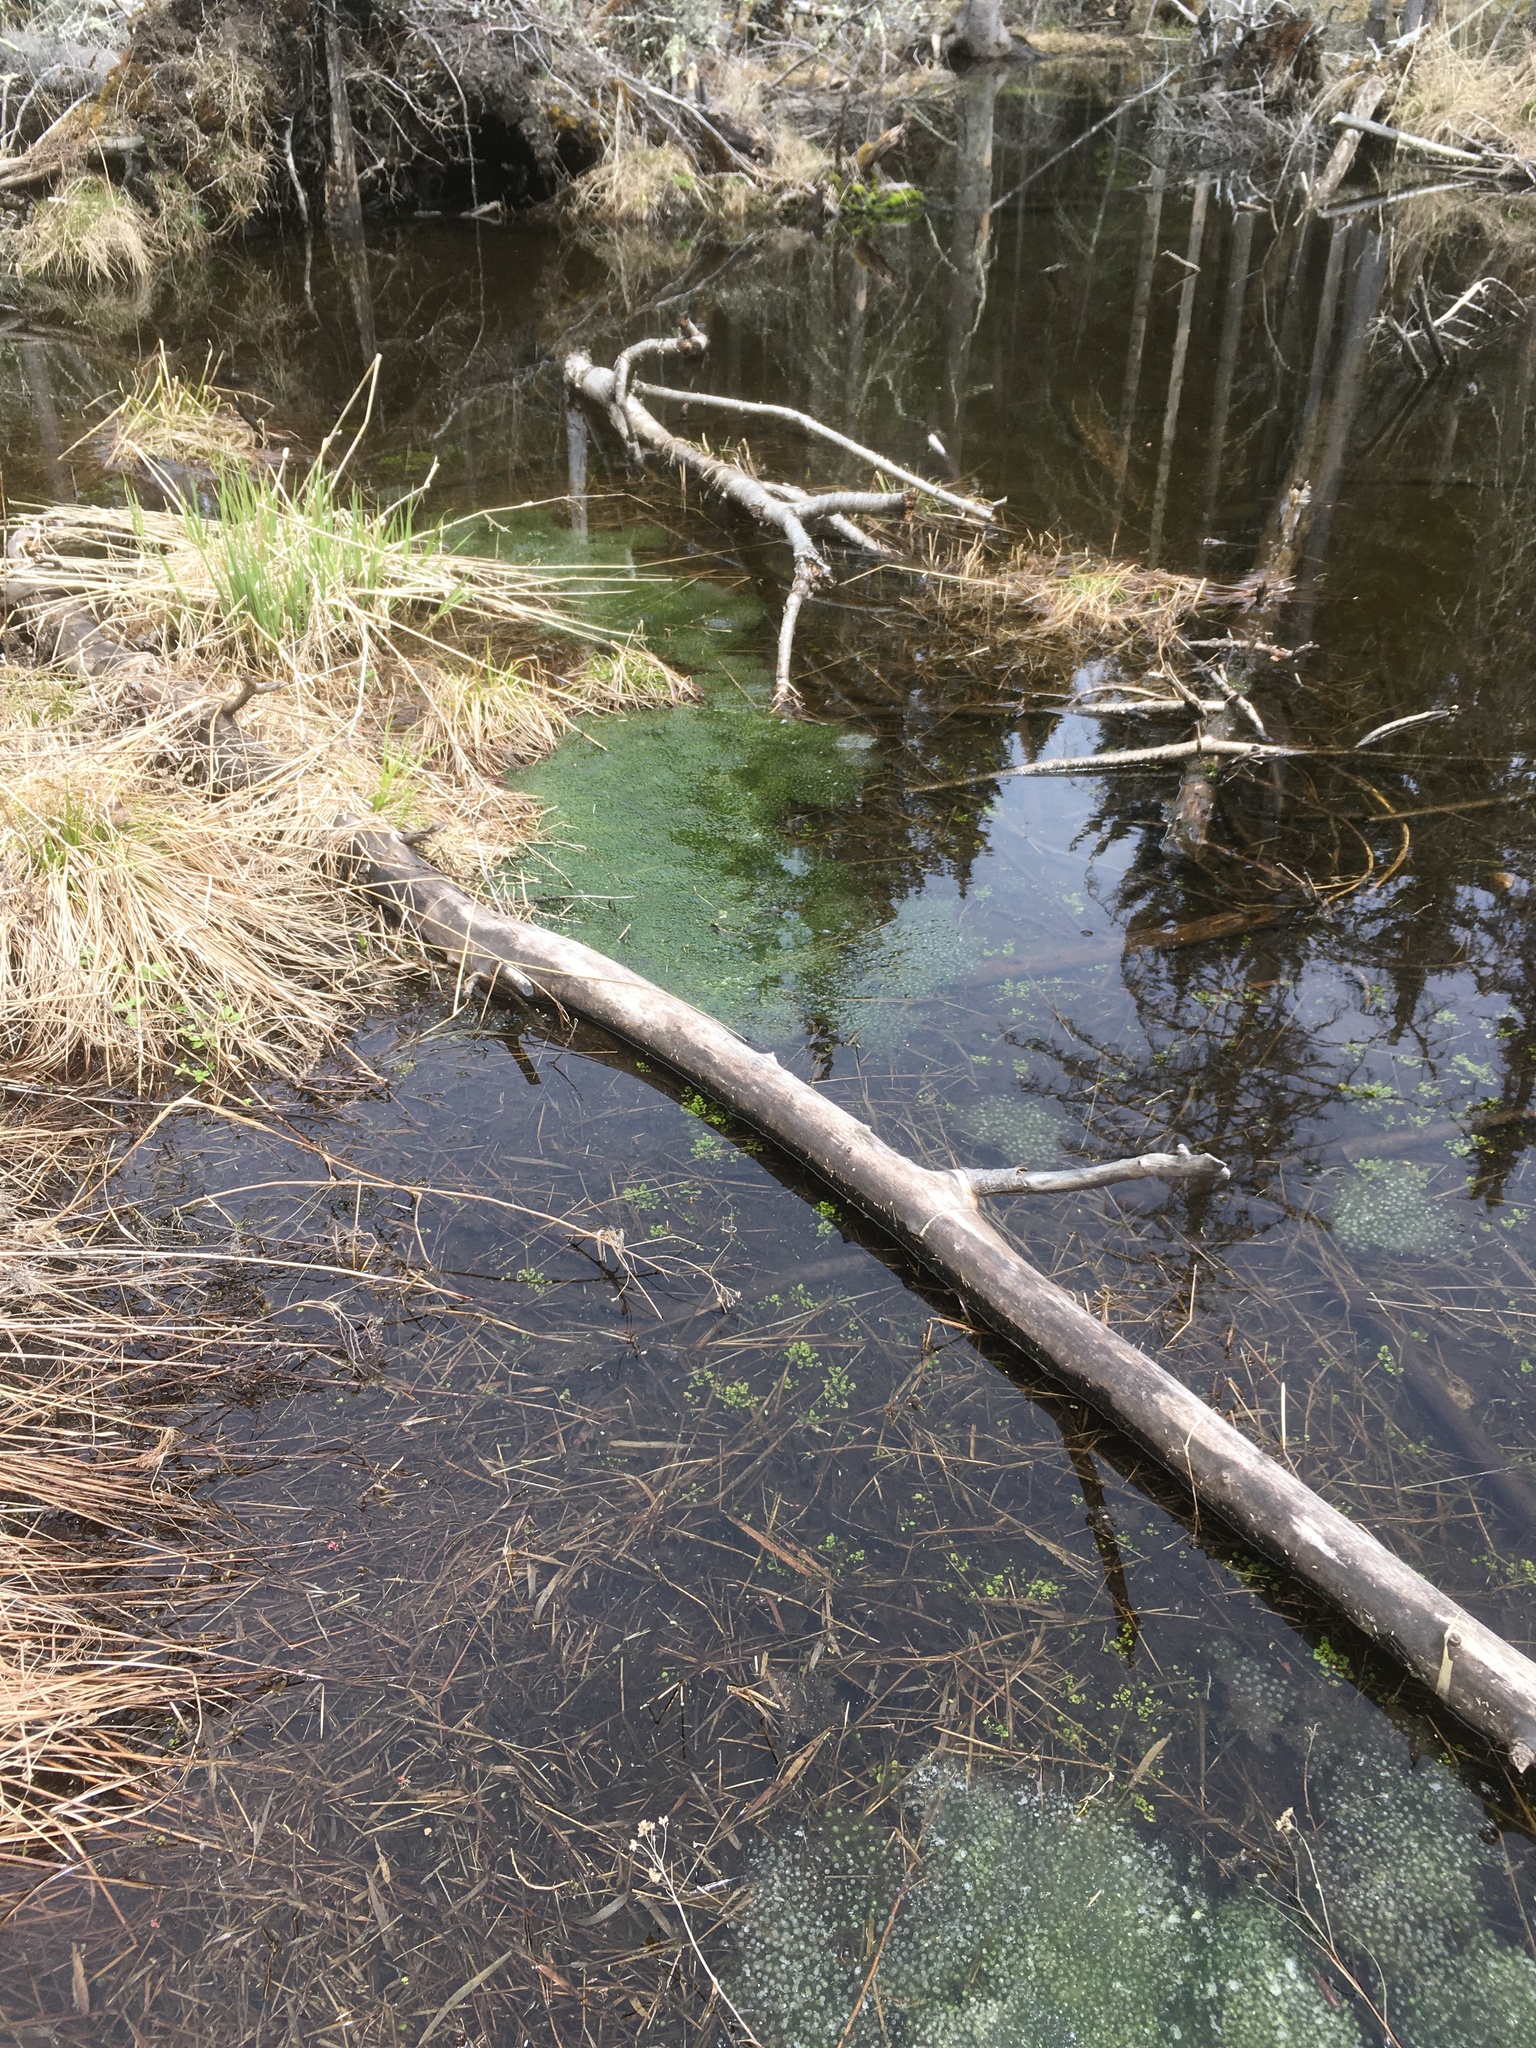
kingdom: Animalia
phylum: Chordata
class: Amphibia
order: Anura
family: Ranidae
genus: Lithobates
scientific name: Lithobates sylvaticus
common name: Wood frog
